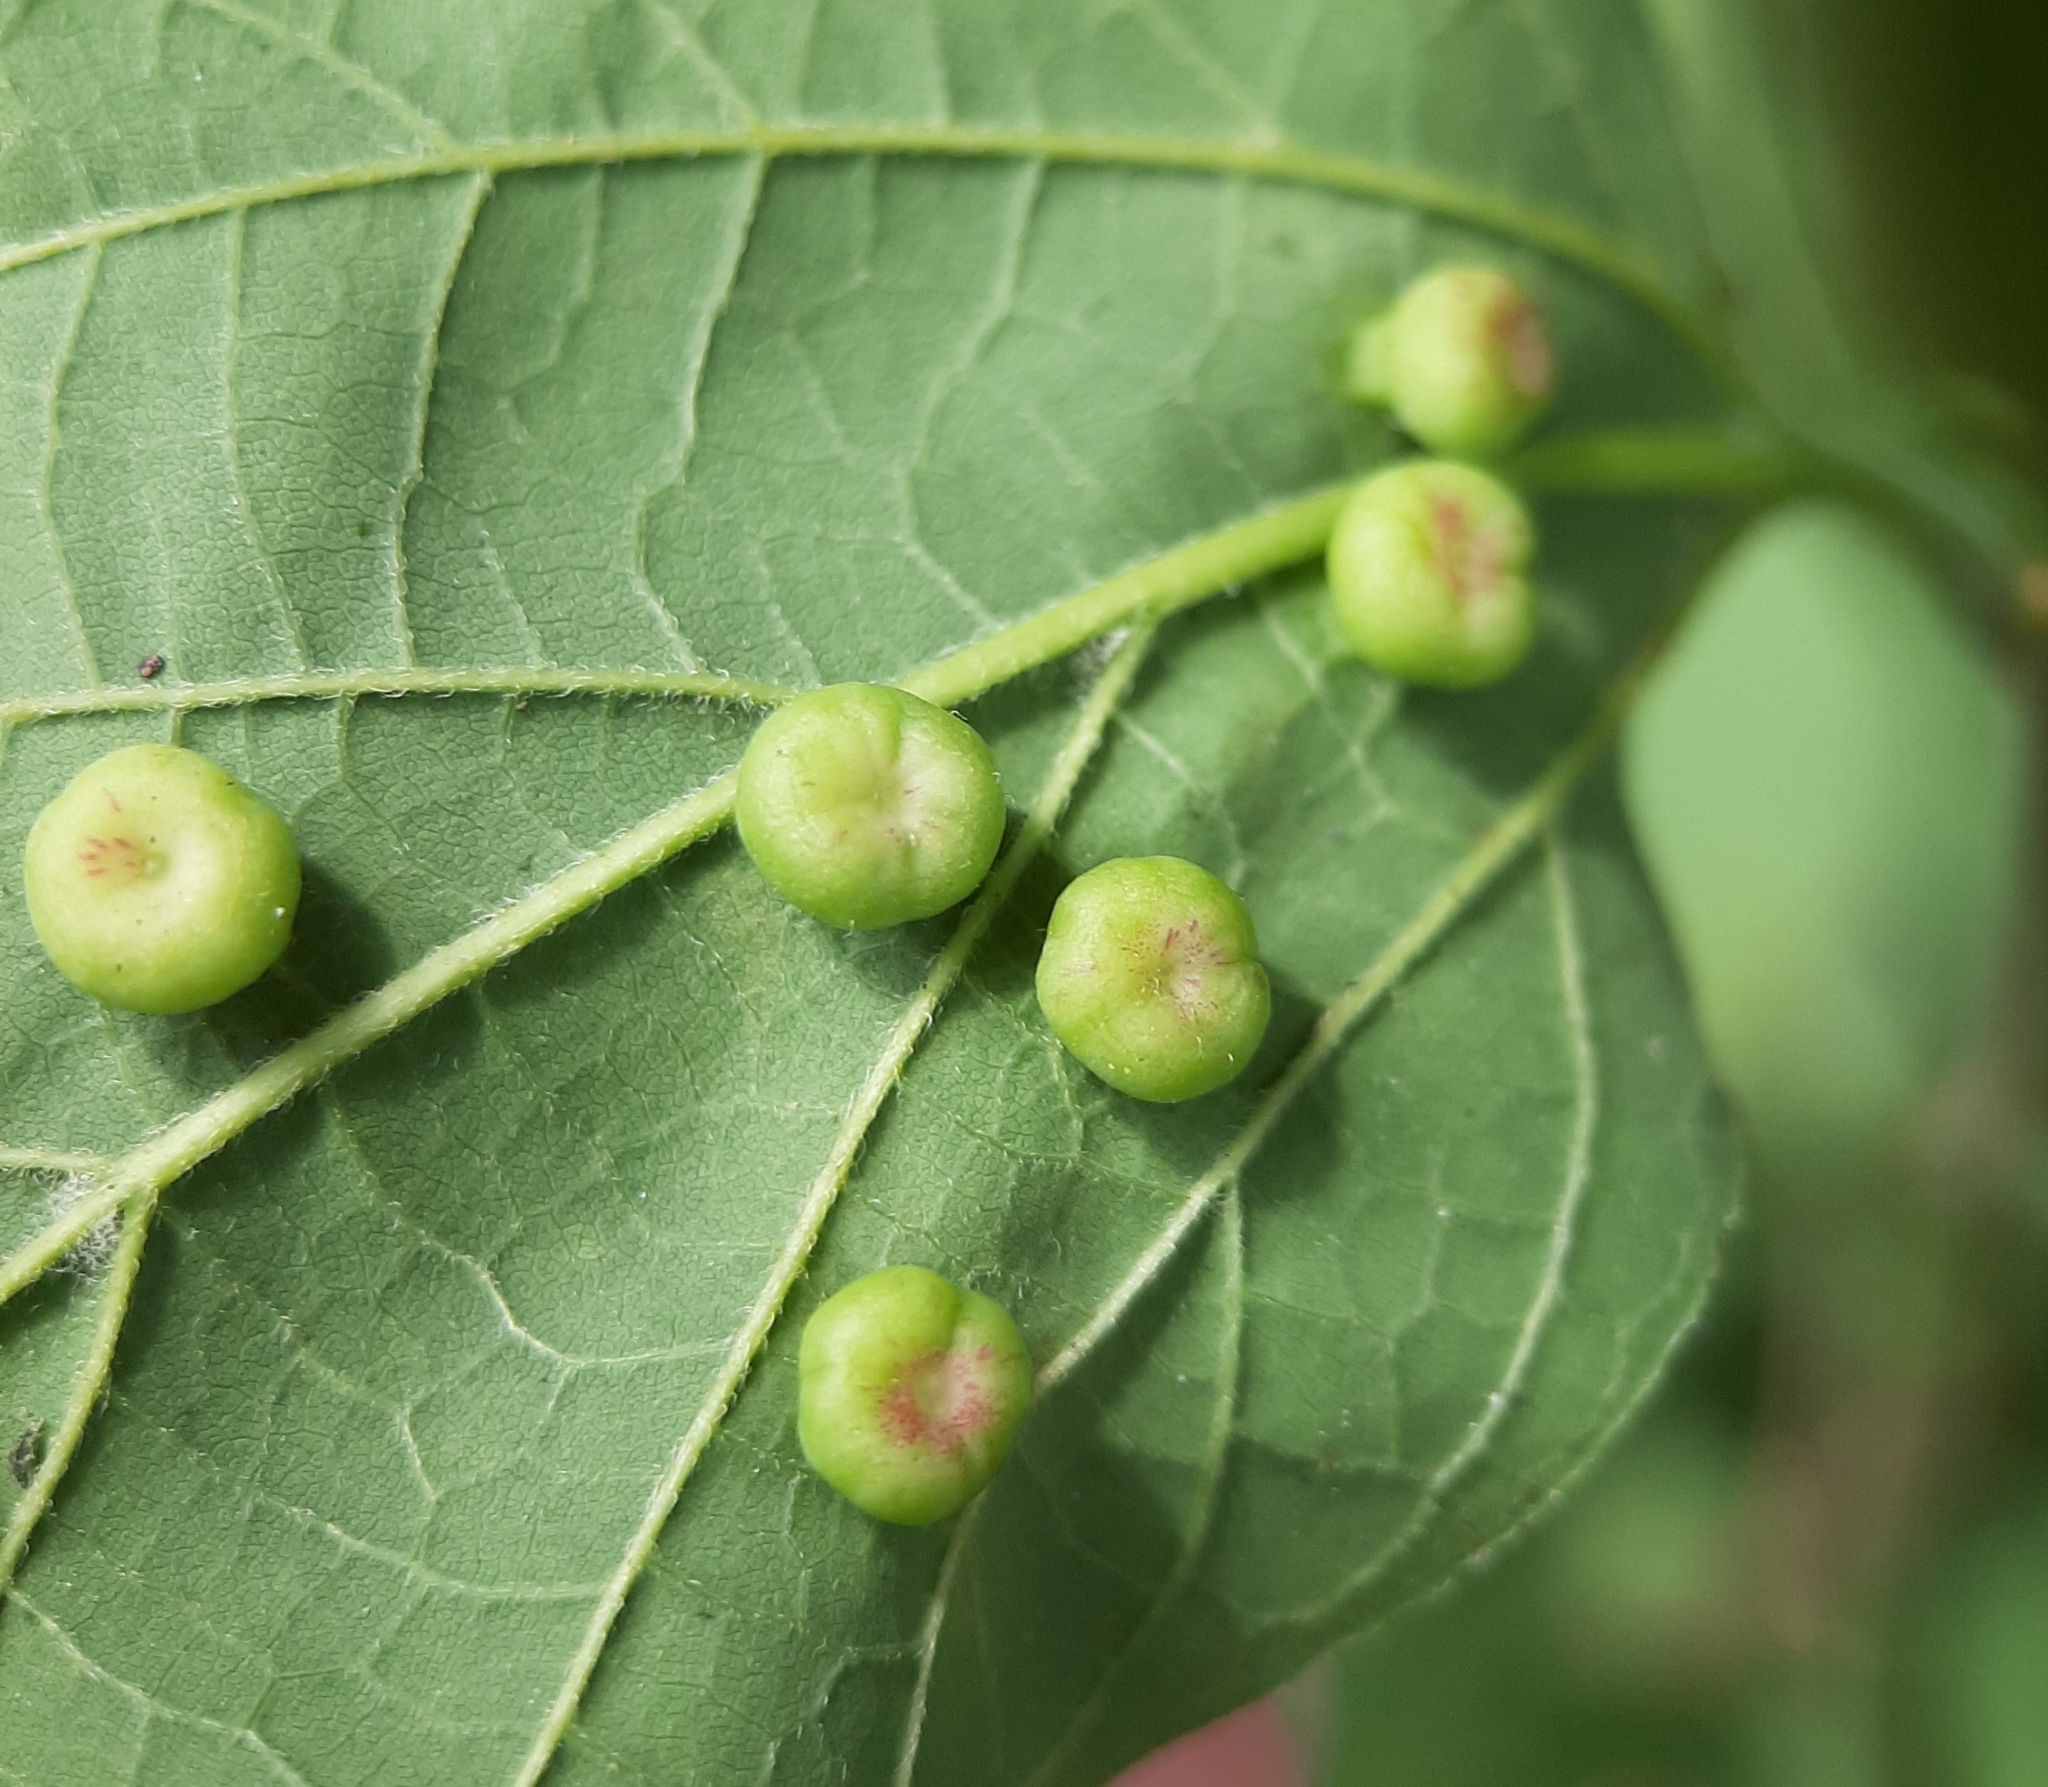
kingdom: Animalia
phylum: Arthropoda
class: Insecta
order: Hemiptera
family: Aphalaridae
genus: Pachypsylla
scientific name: Pachypsylla celtidismamma
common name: Hackberry nipplegall psyllid
